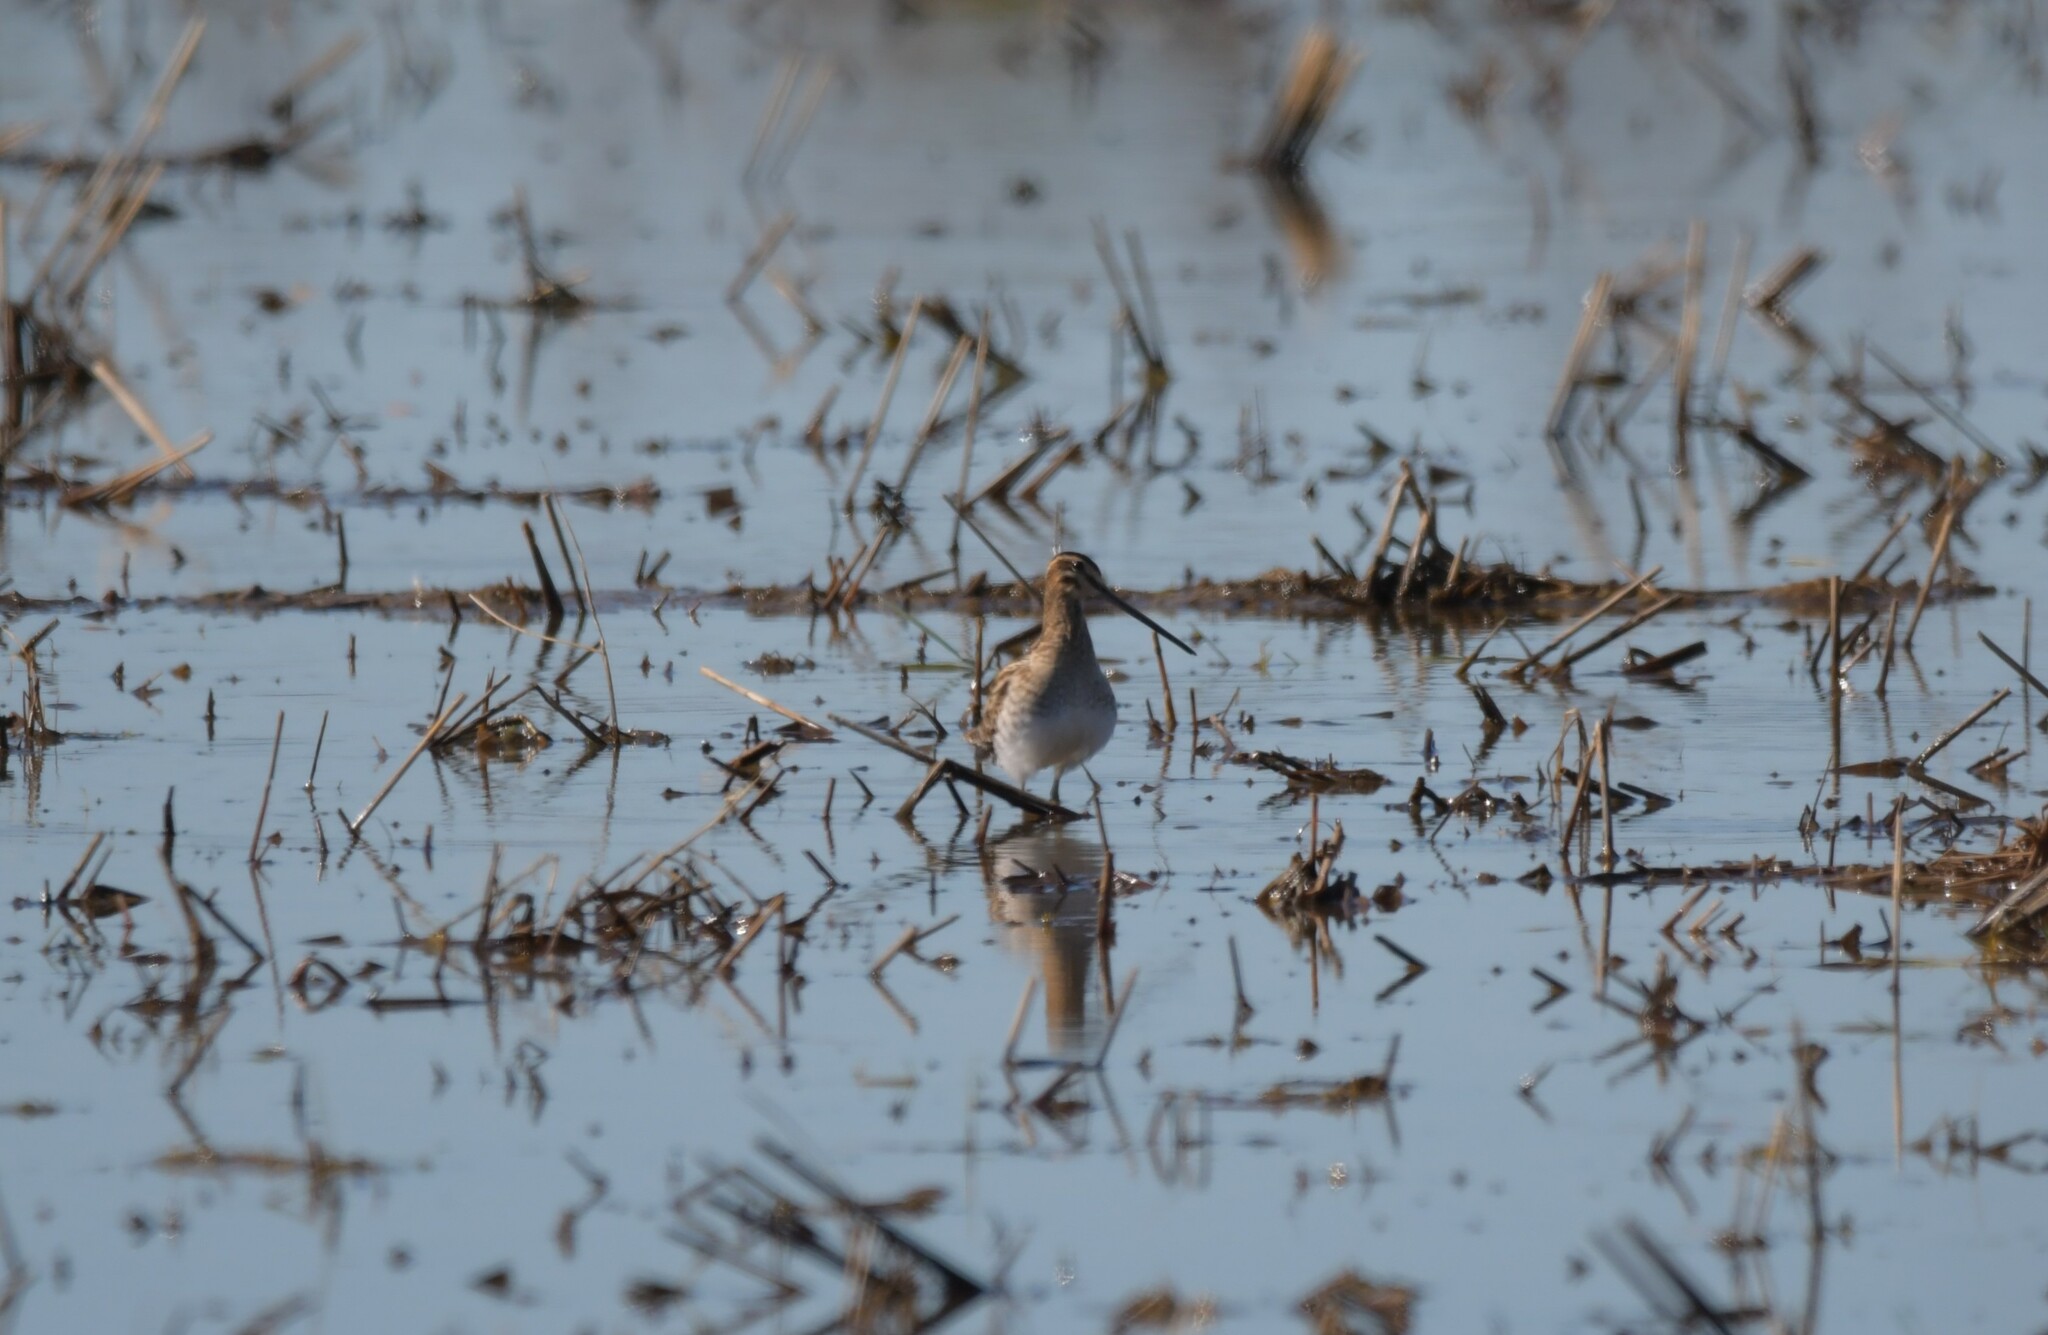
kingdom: Animalia
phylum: Chordata
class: Aves
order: Charadriiformes
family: Scolopacidae
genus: Gallinago
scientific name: Gallinago gallinago
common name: Common snipe
